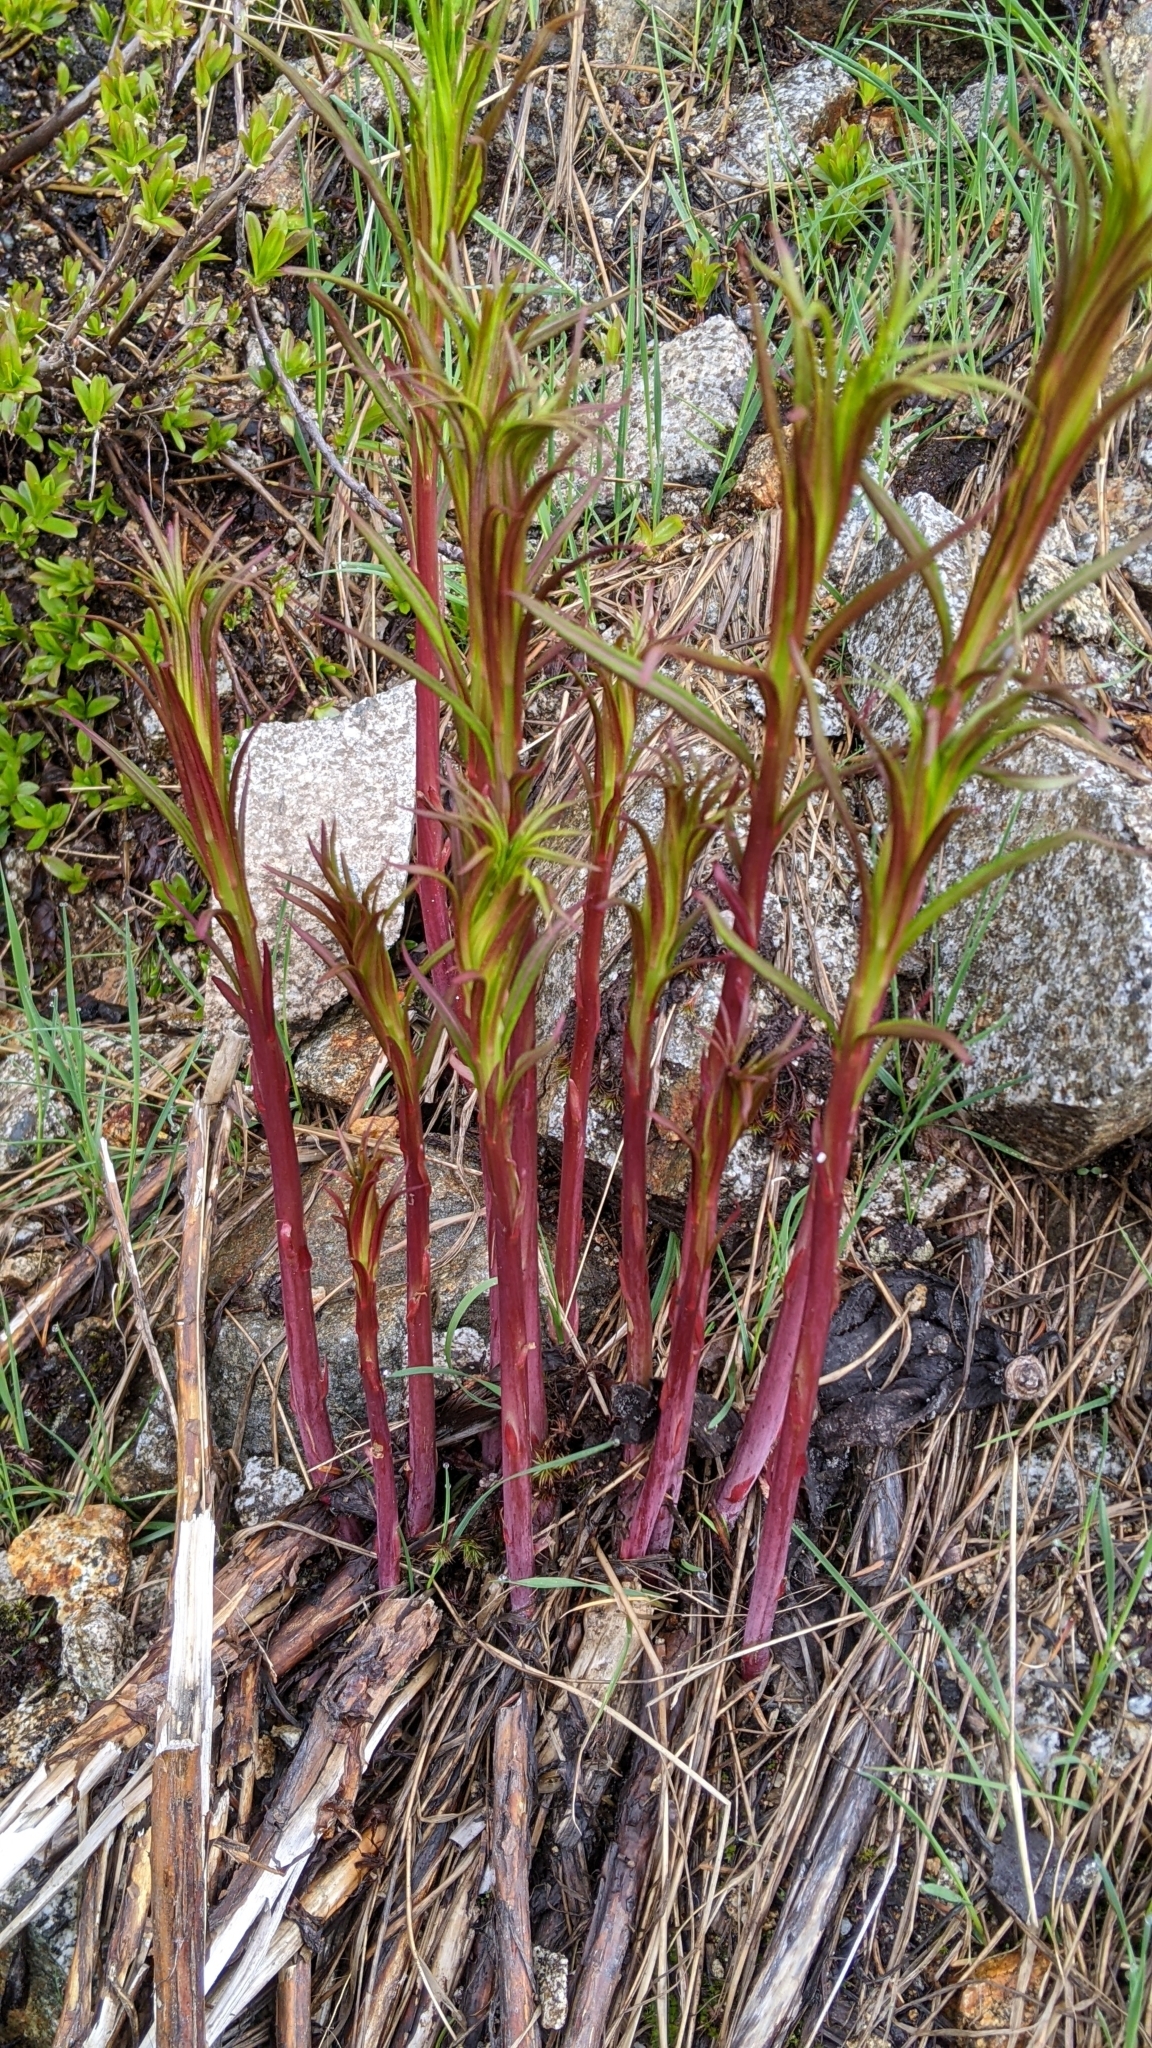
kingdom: Plantae
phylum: Tracheophyta
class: Magnoliopsida
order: Myrtales
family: Onagraceae
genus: Chamaenerion
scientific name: Chamaenerion angustifolium
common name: Fireweed
